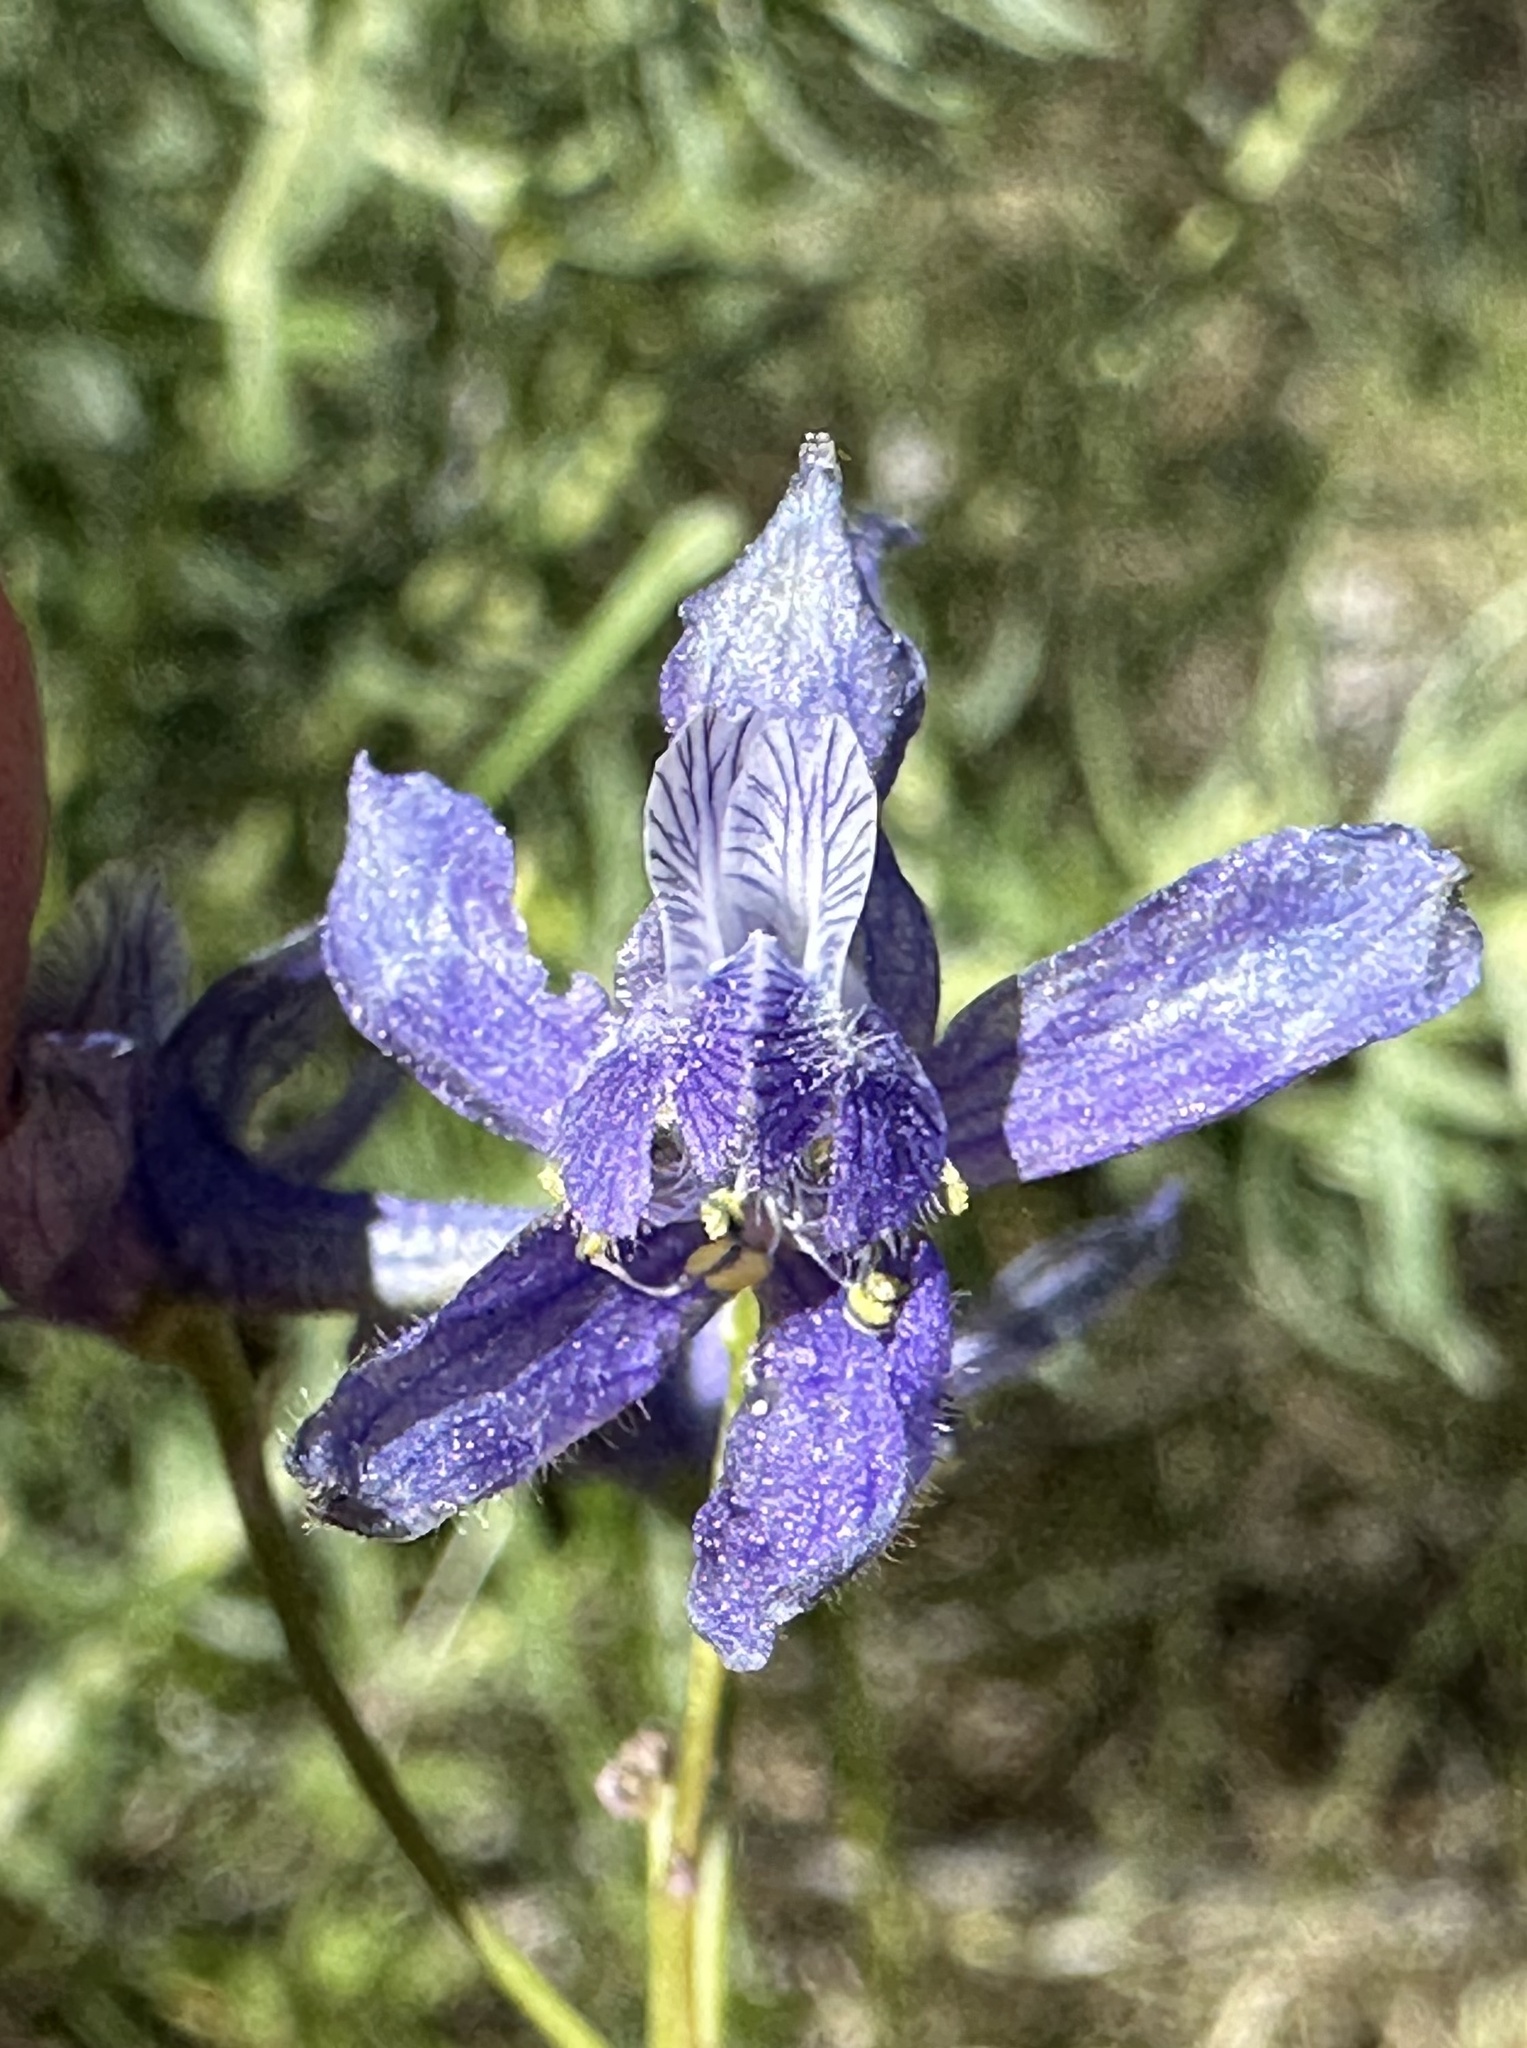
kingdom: Plantae
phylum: Tracheophyta
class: Magnoliopsida
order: Ranunculales
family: Ranunculaceae
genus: Delphinium
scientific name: Delphinium nuttallianum
